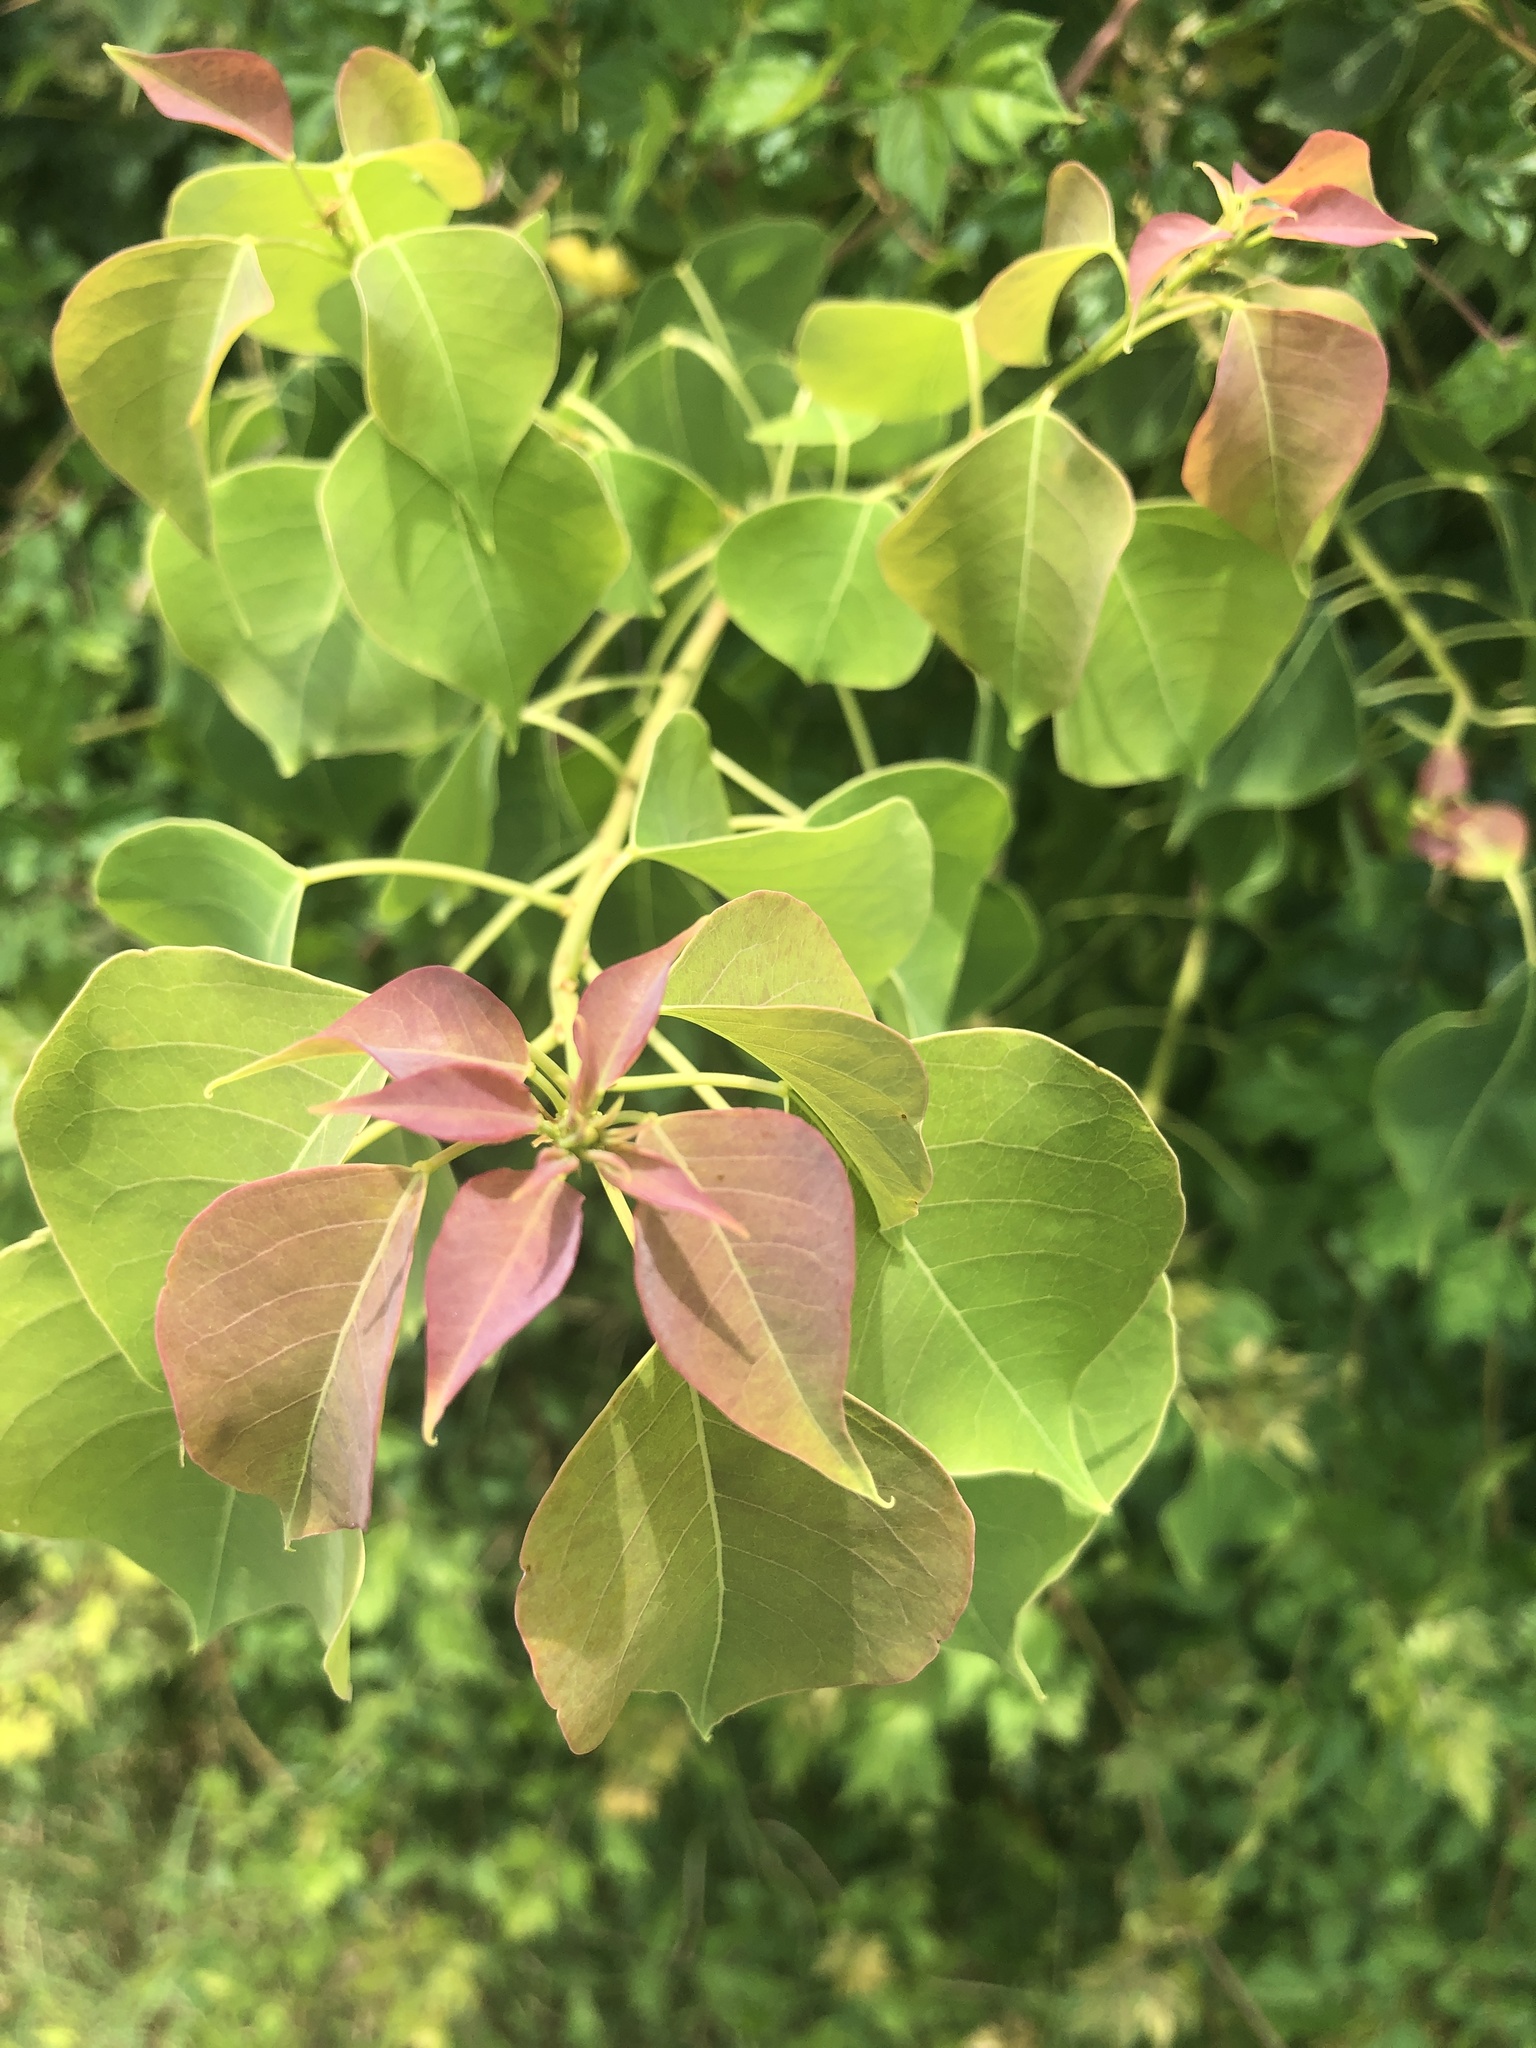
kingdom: Plantae
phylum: Tracheophyta
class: Magnoliopsida
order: Malpighiales
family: Euphorbiaceae
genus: Triadica
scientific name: Triadica sebifera
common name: Chinese tallow
